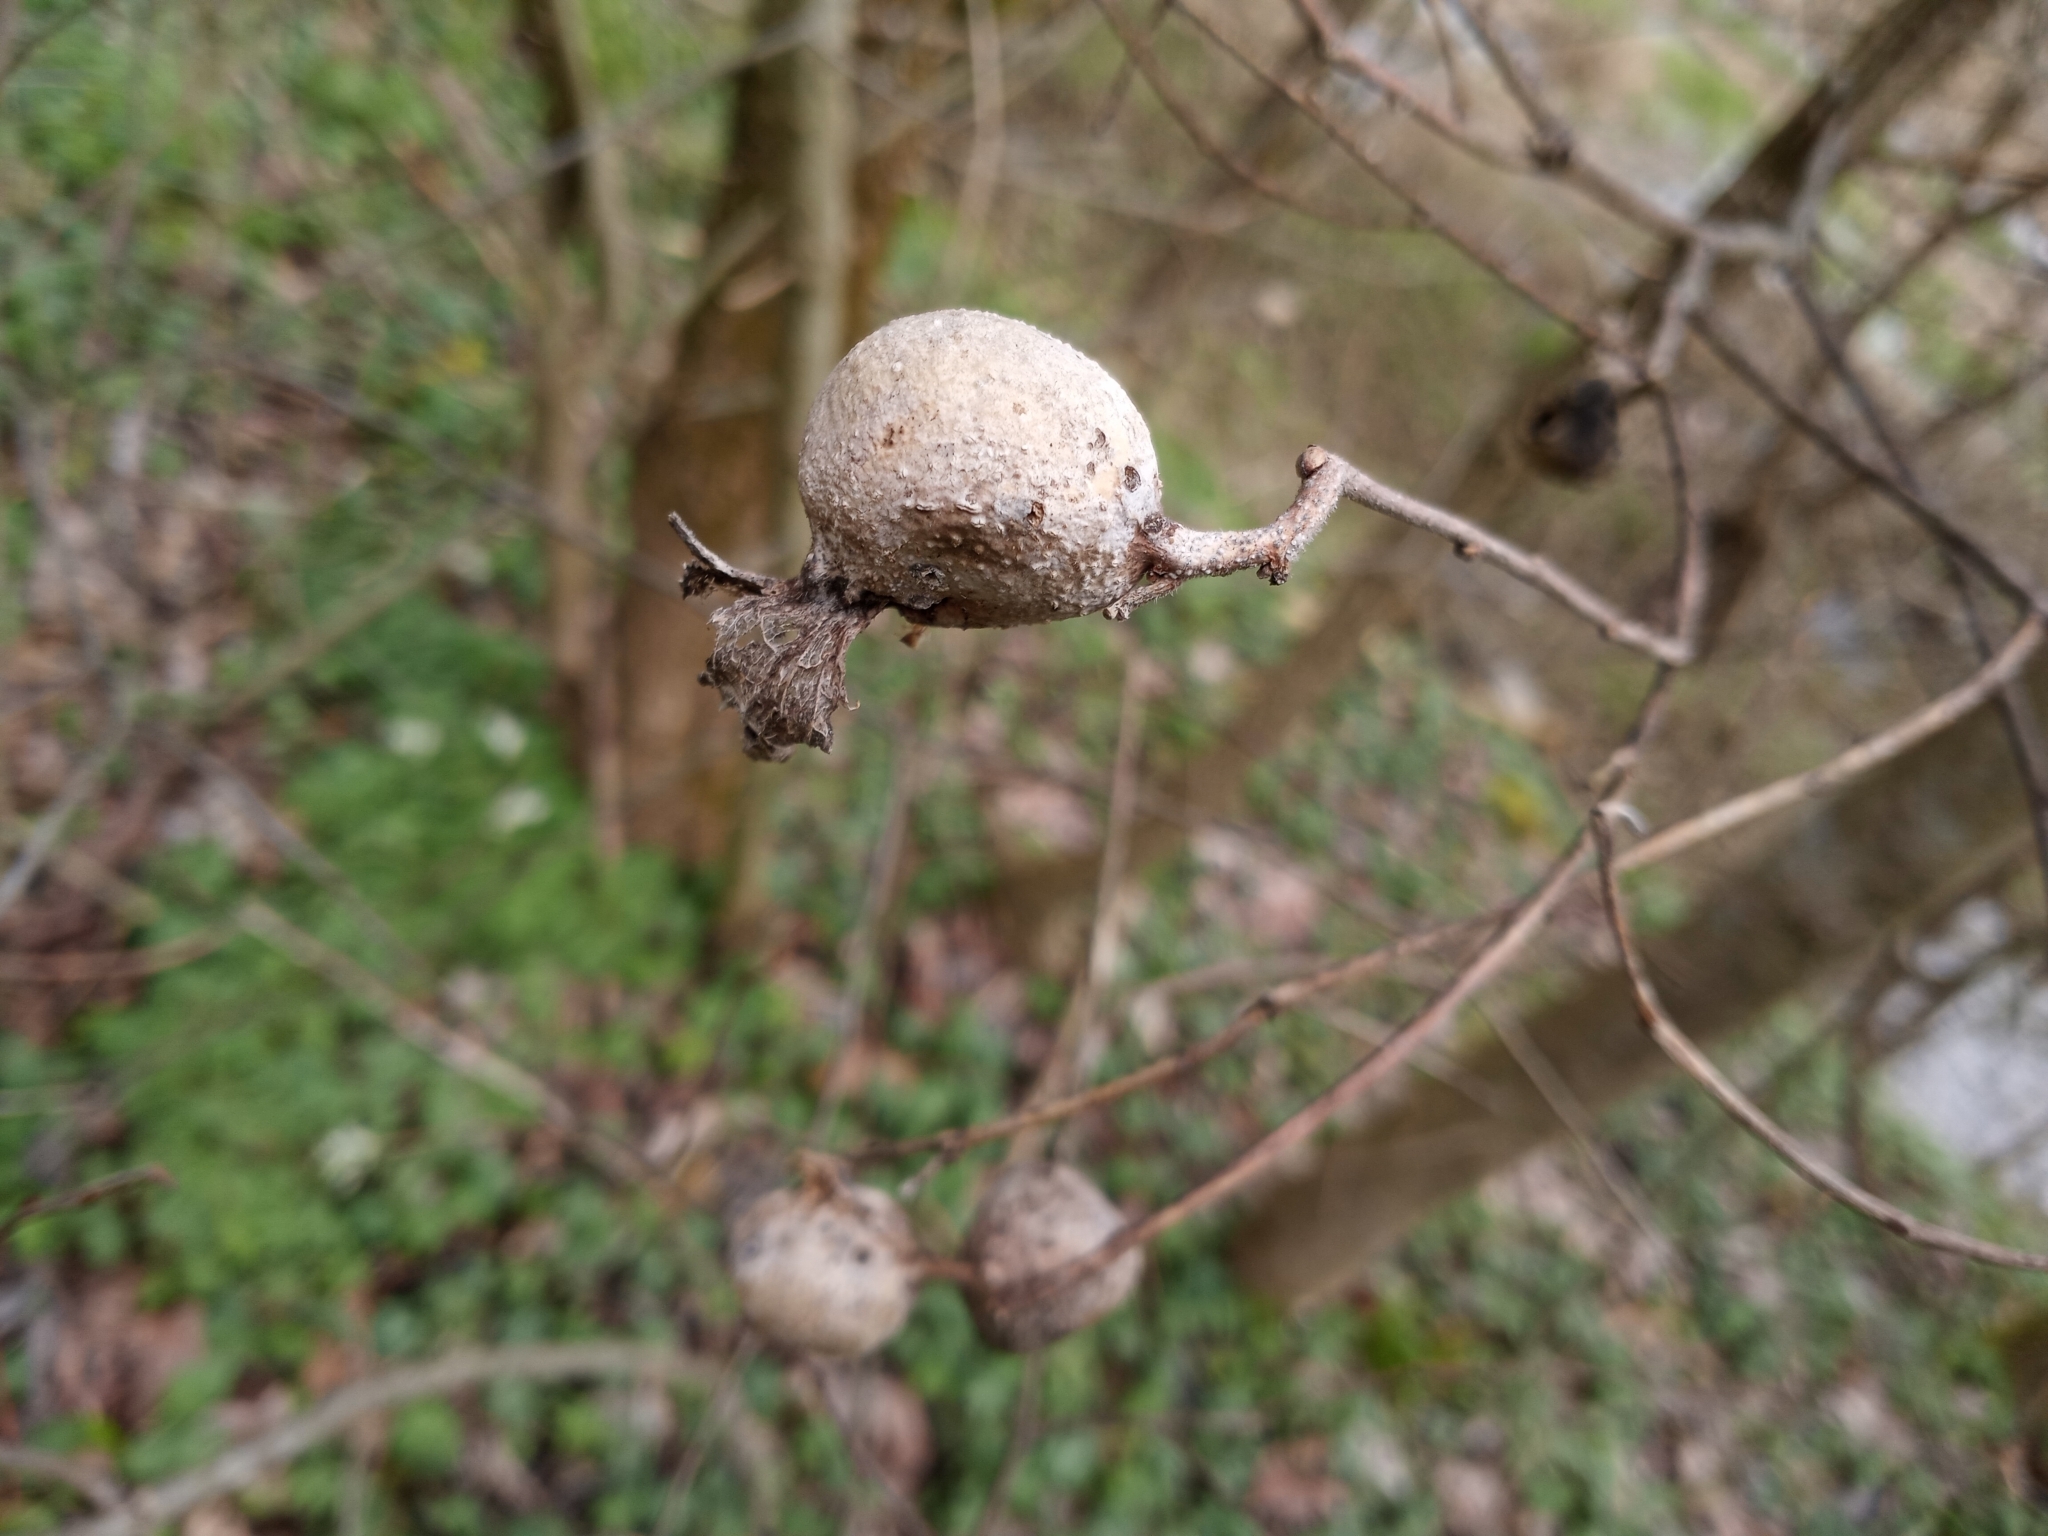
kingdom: Animalia
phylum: Arthropoda
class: Insecta
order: Hemiptera
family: Aphalaridae
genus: Pachypsylla
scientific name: Pachypsylla venusta
